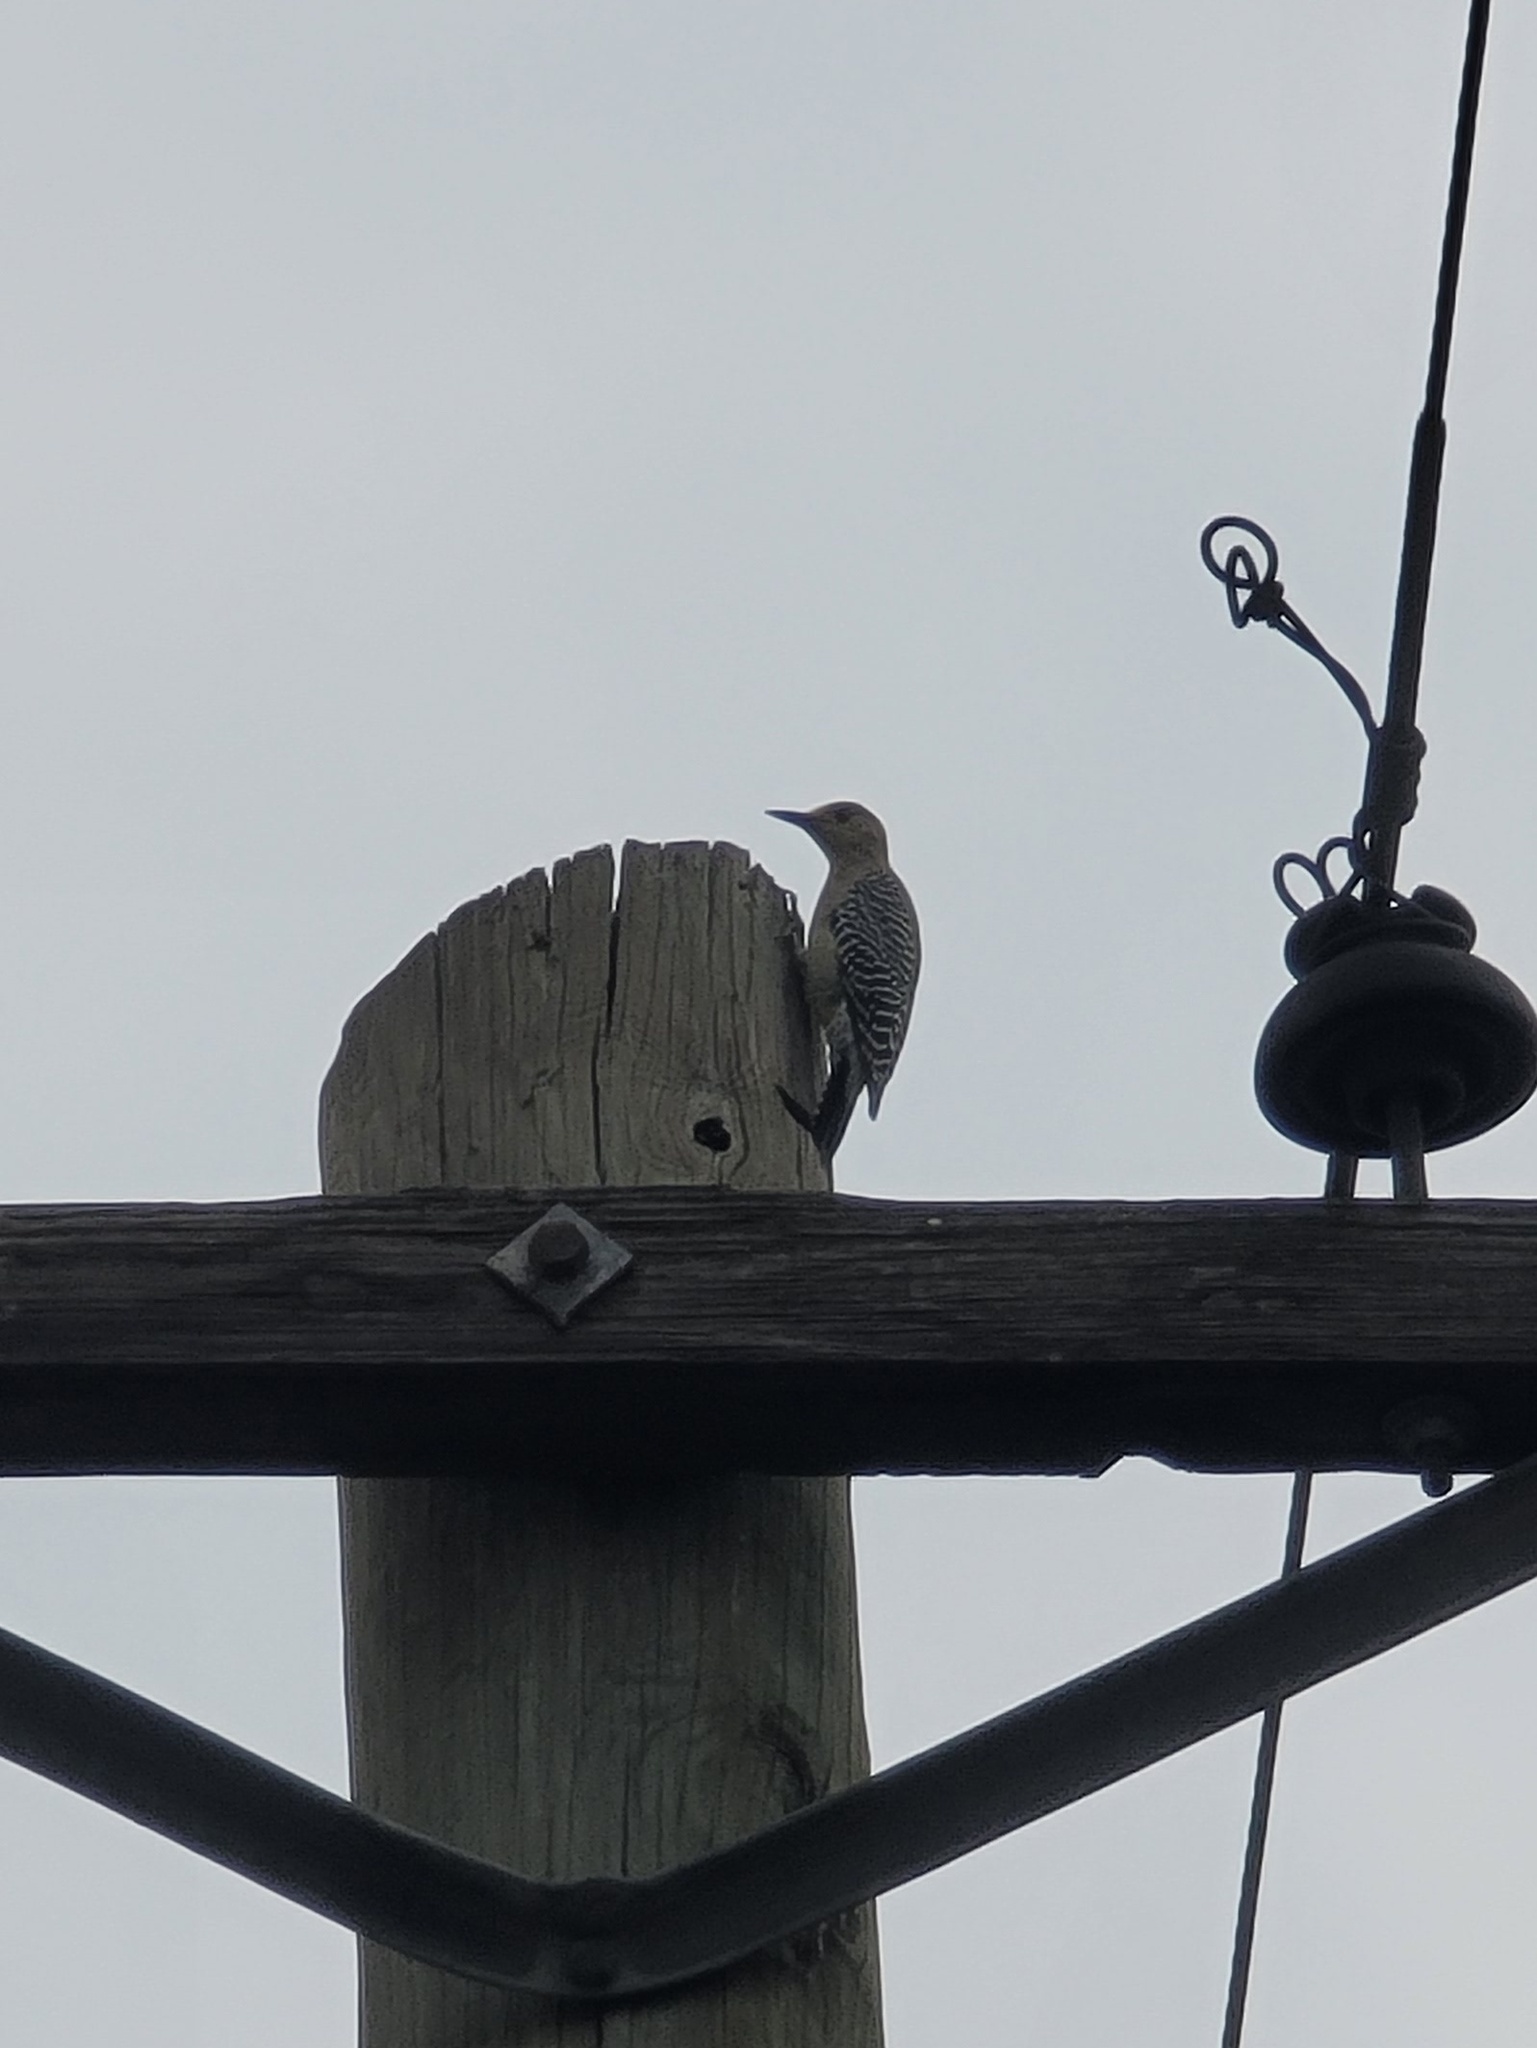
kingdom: Animalia
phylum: Chordata
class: Aves
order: Piciformes
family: Picidae
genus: Melanerpes
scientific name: Melanerpes aurifrons
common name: Golden-fronted woodpecker
